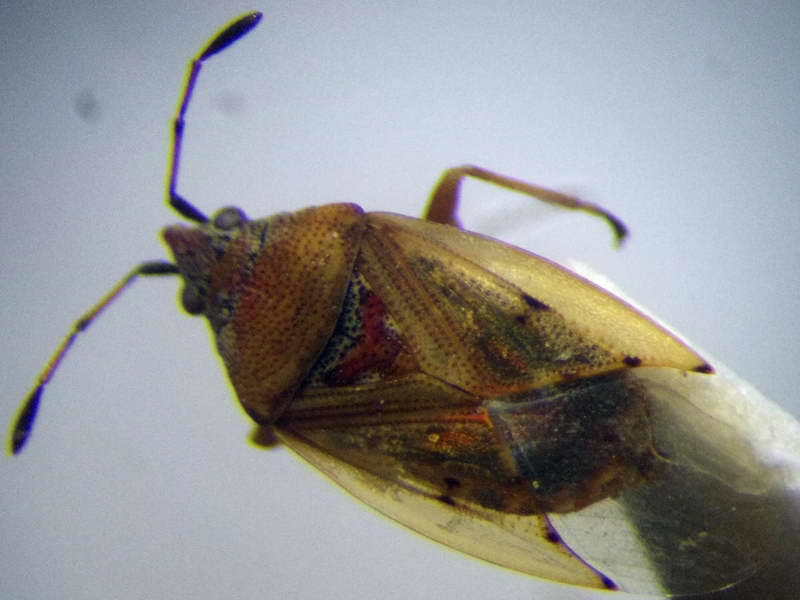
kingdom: Animalia
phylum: Arthropoda
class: Insecta
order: Hemiptera
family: Lygaeidae
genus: Kleidocerys
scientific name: Kleidocerys resedae
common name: Birch catkin bug
